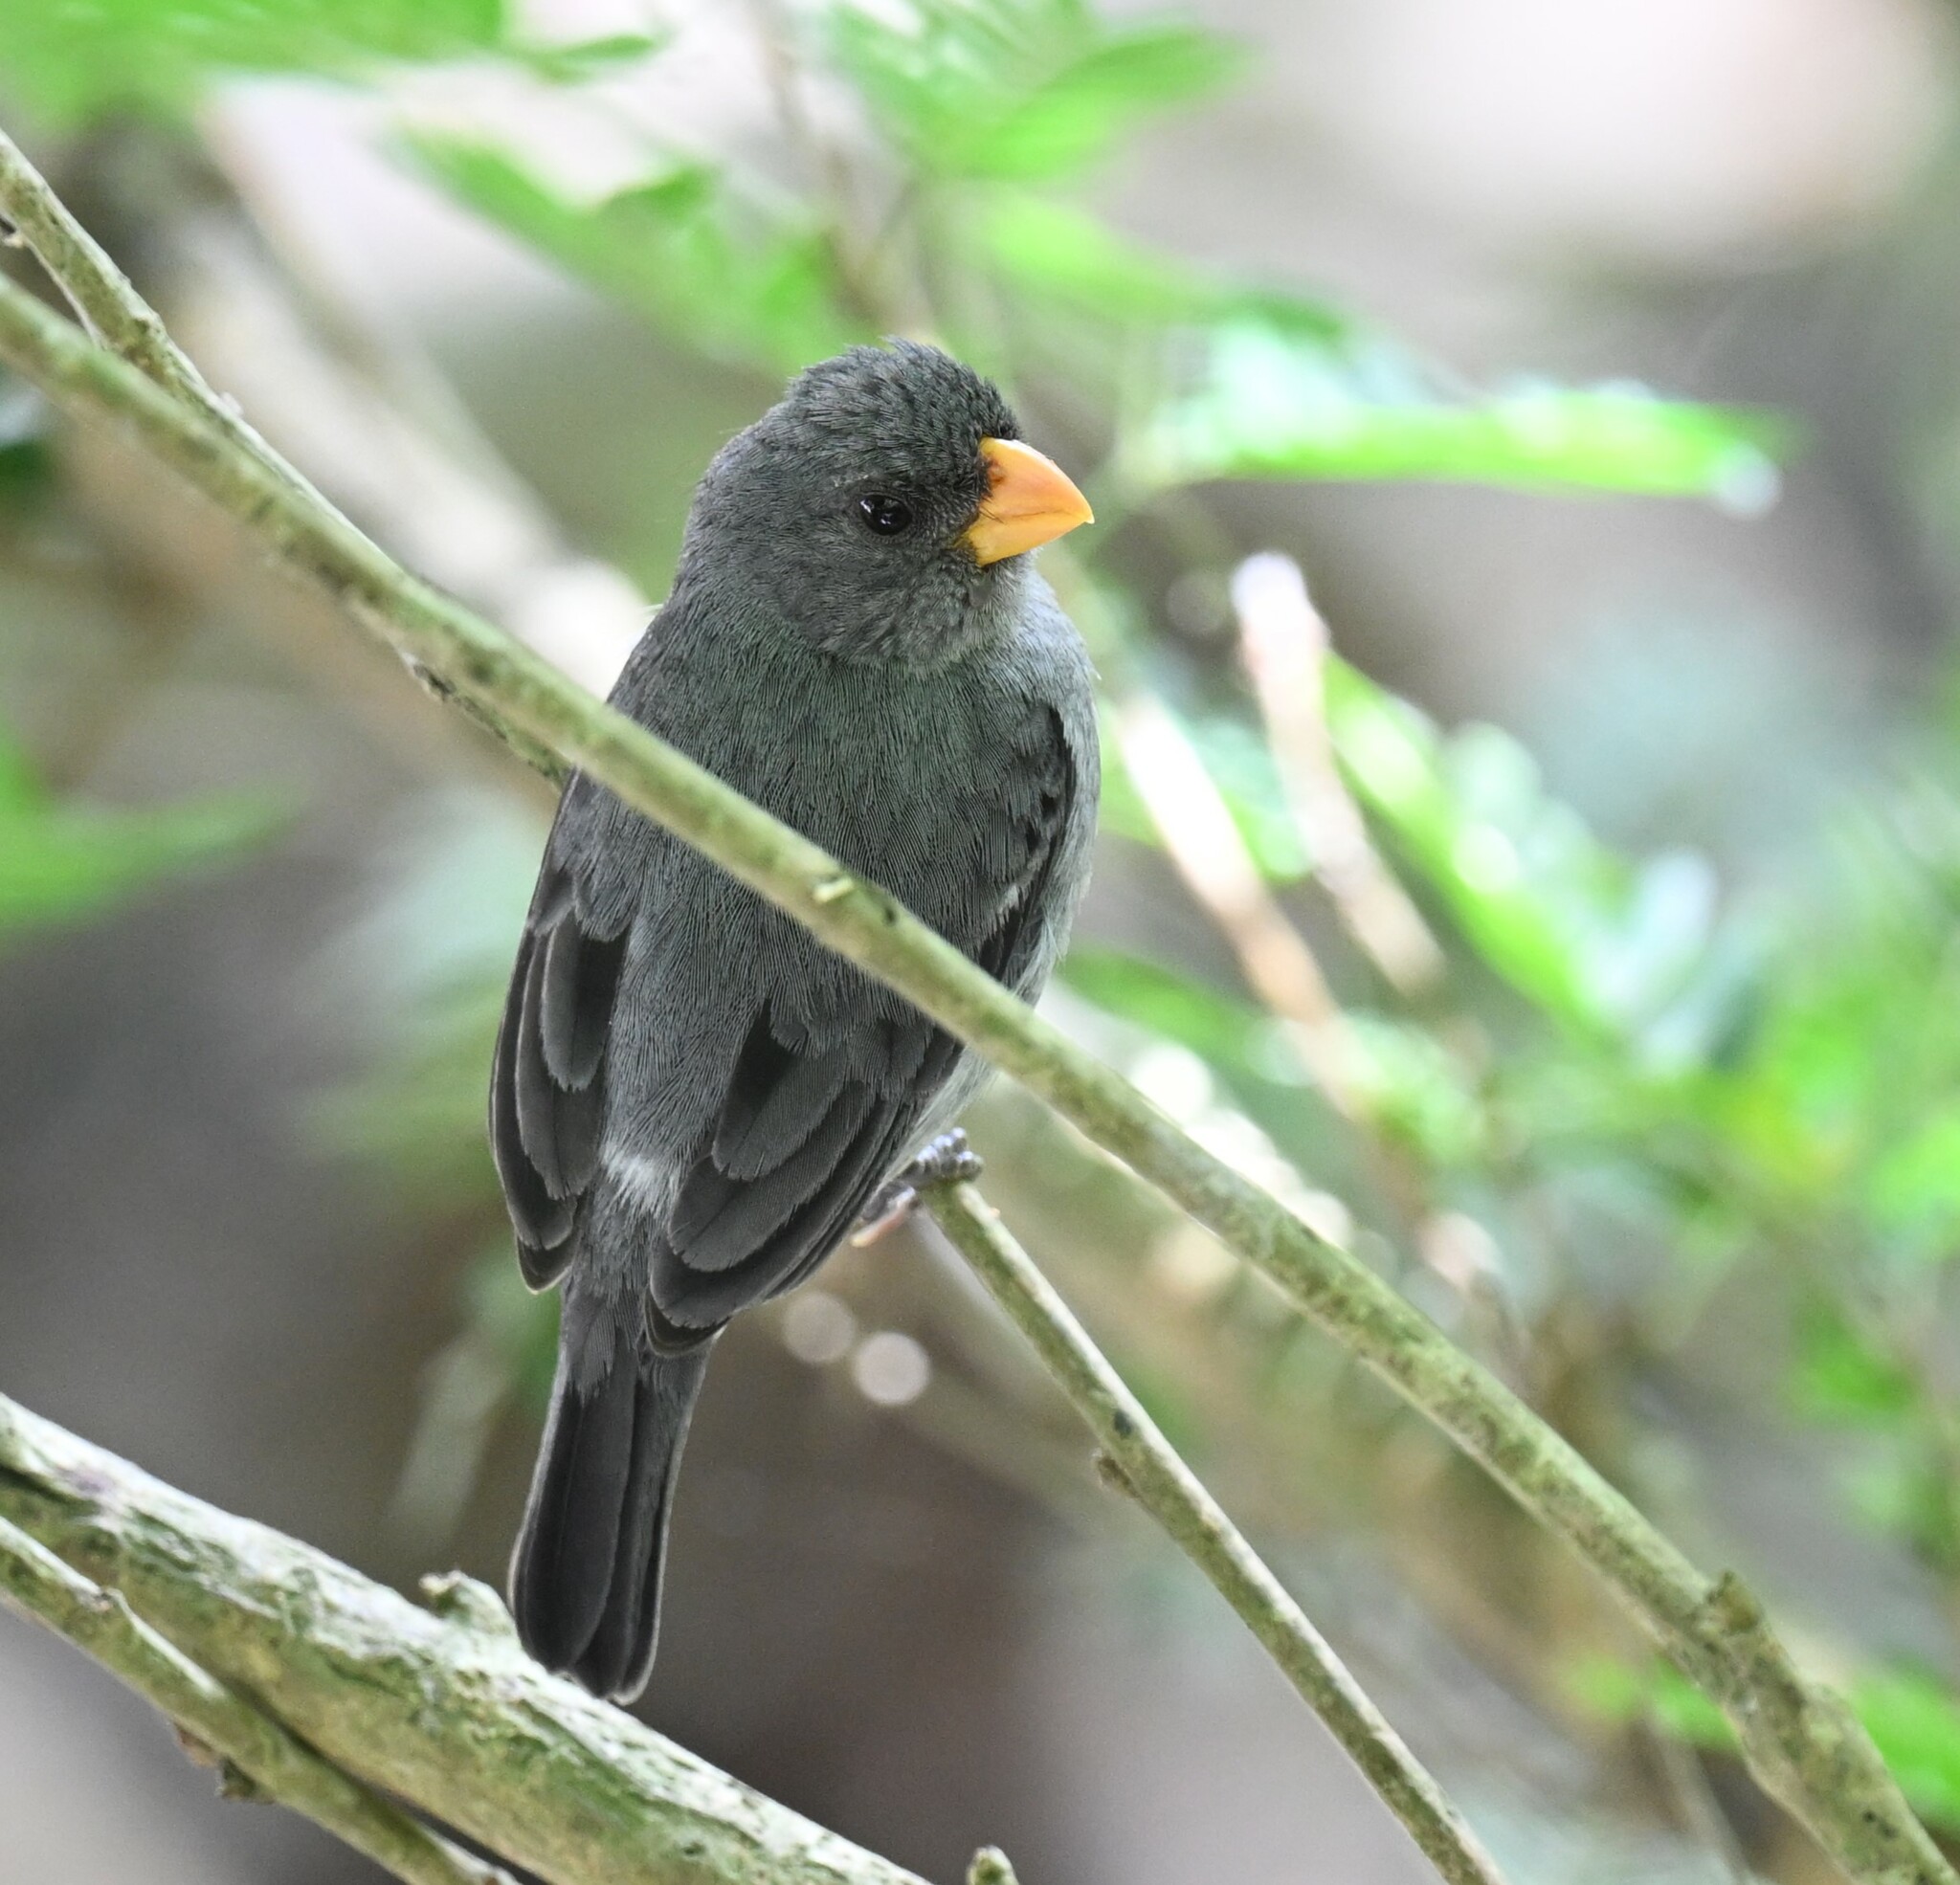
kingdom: Animalia
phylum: Chordata
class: Aves
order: Passeriformes
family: Thraupidae
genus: Sporophila
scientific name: Sporophila intermedia
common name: Grey seedeater
